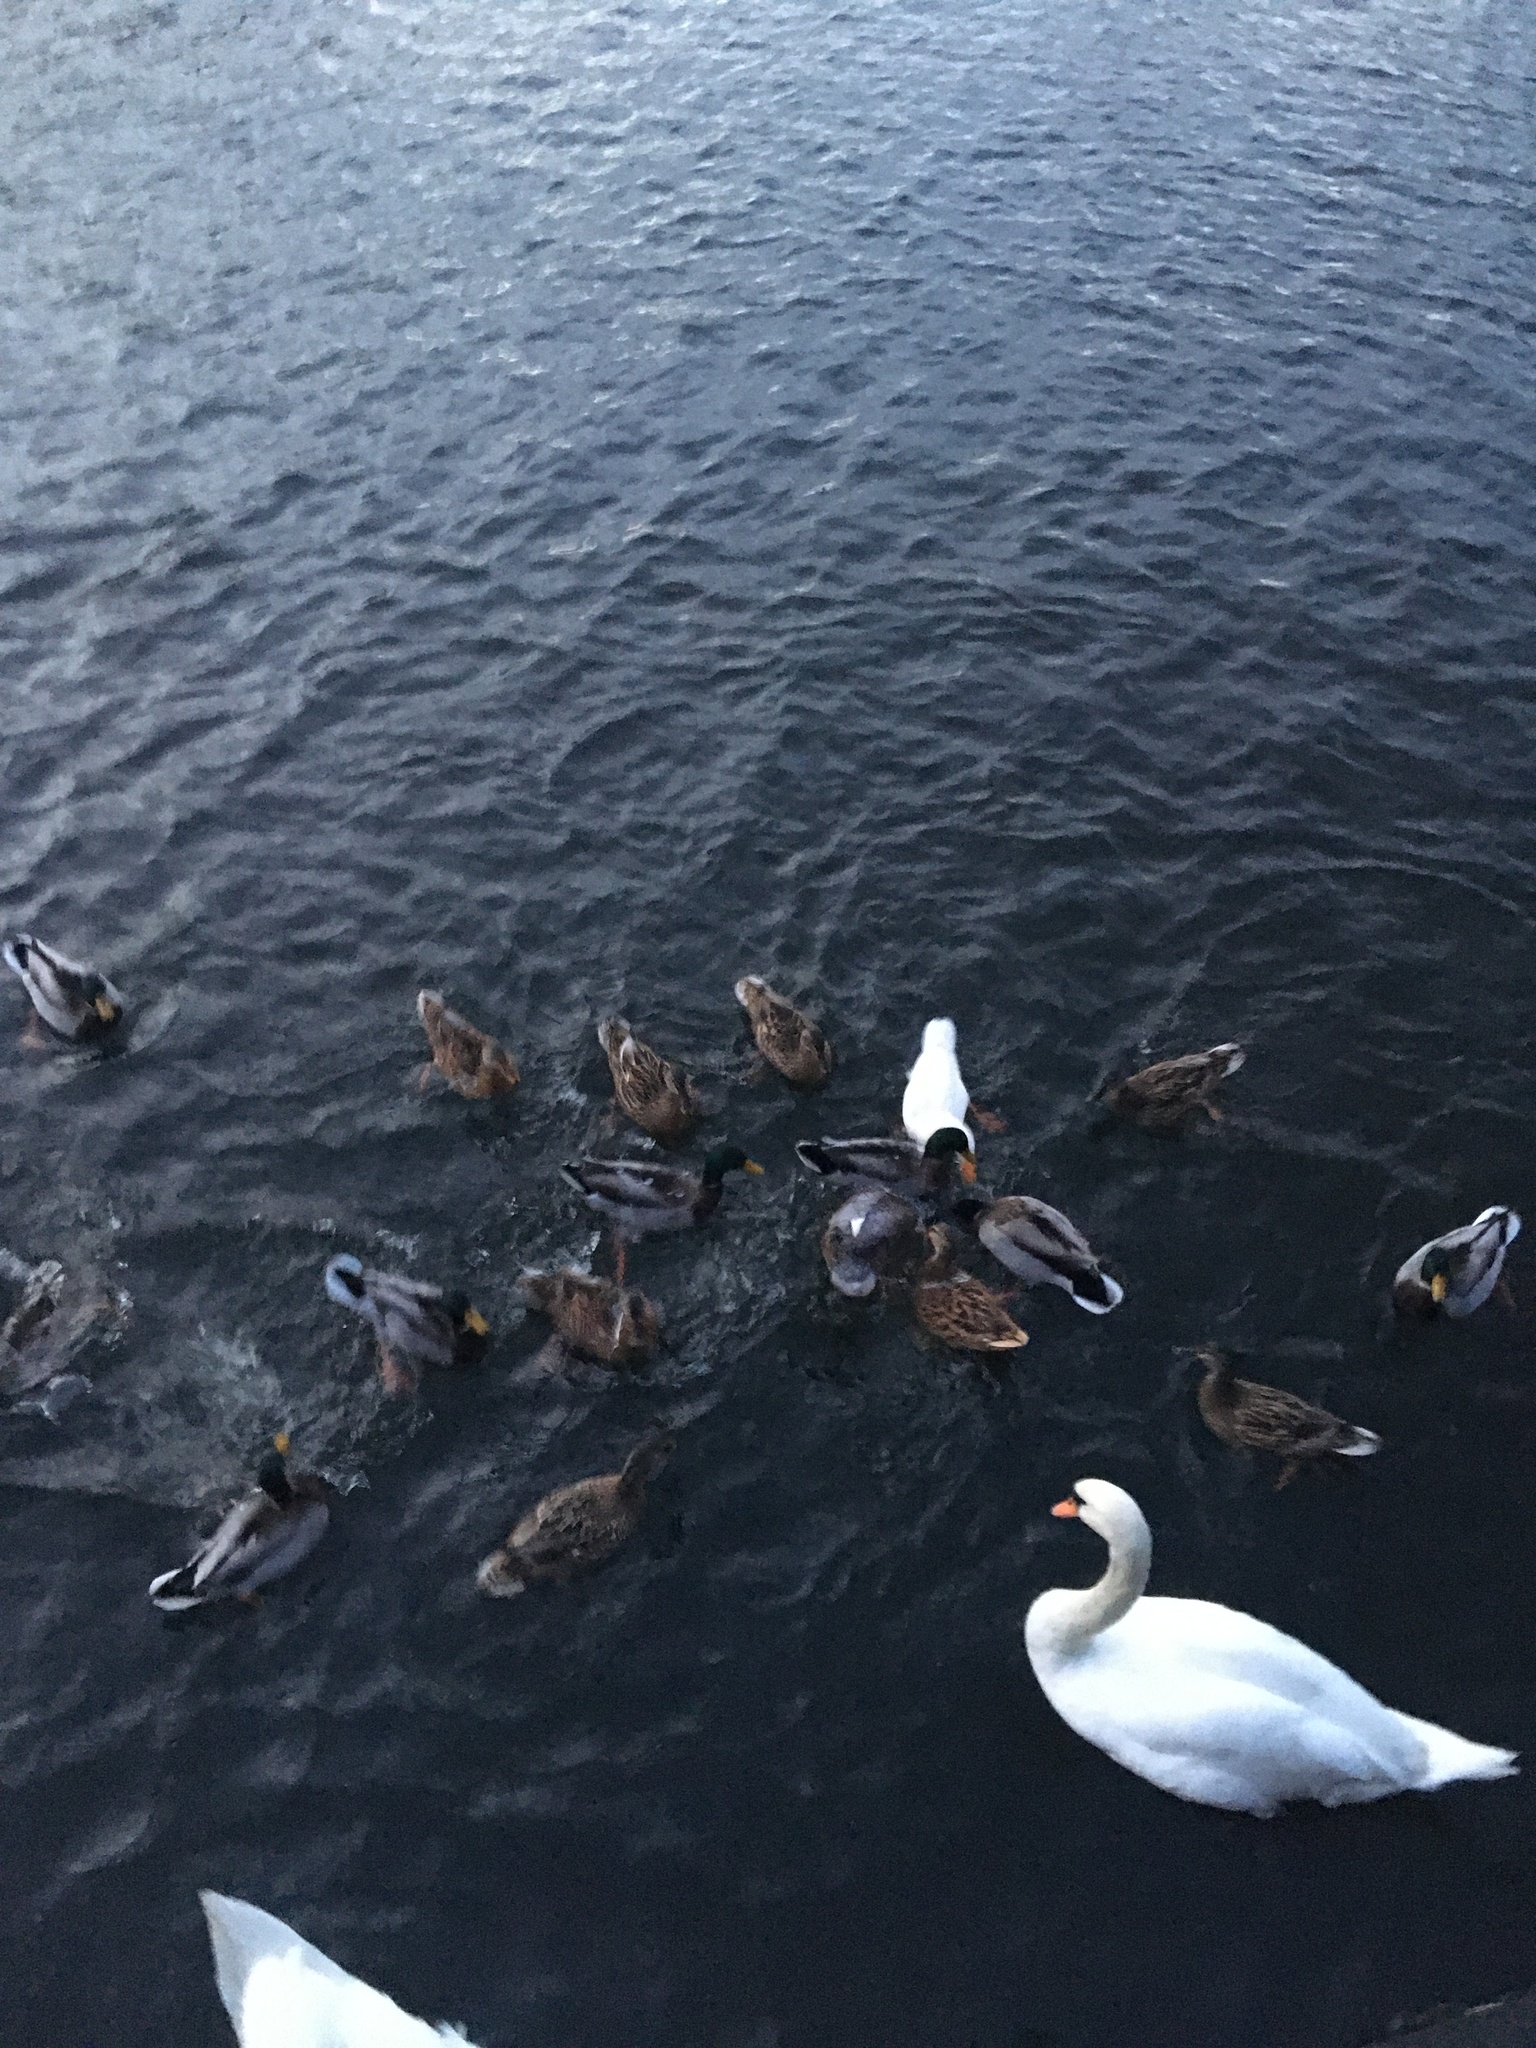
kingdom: Animalia
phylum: Chordata
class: Aves
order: Anseriformes
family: Anatidae
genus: Anas
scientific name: Anas platyrhynchos
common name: Mallard
